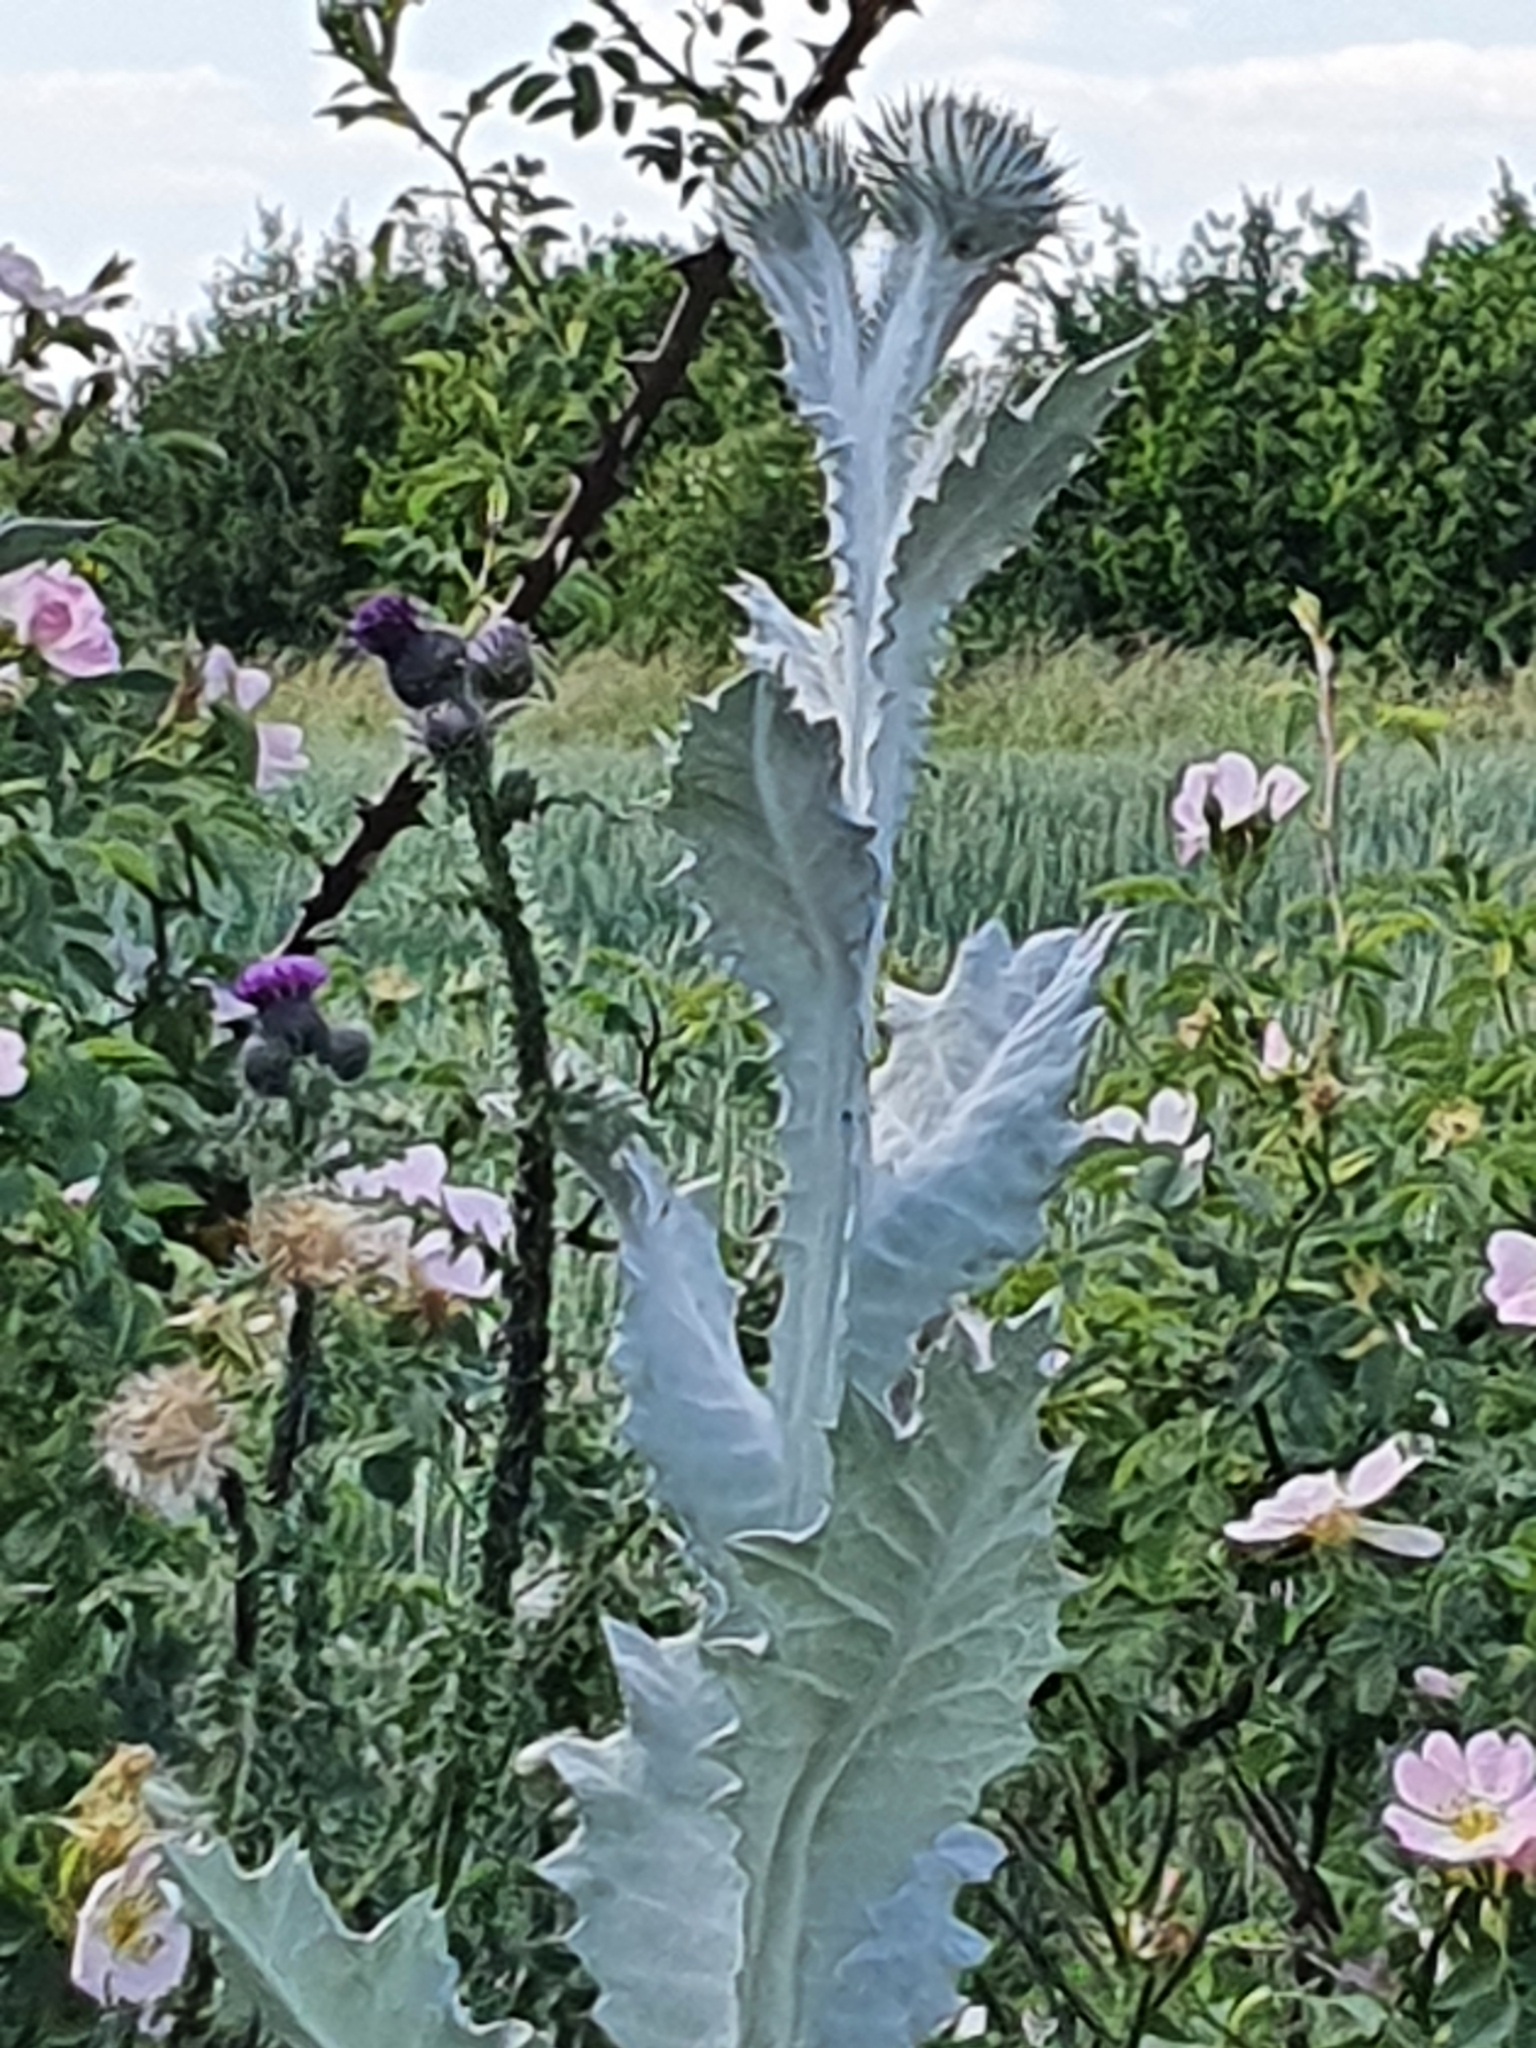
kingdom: Plantae
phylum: Tracheophyta
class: Magnoliopsida
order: Asterales
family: Asteraceae
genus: Onopordum
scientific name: Onopordum acanthium
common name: Scotch thistle
